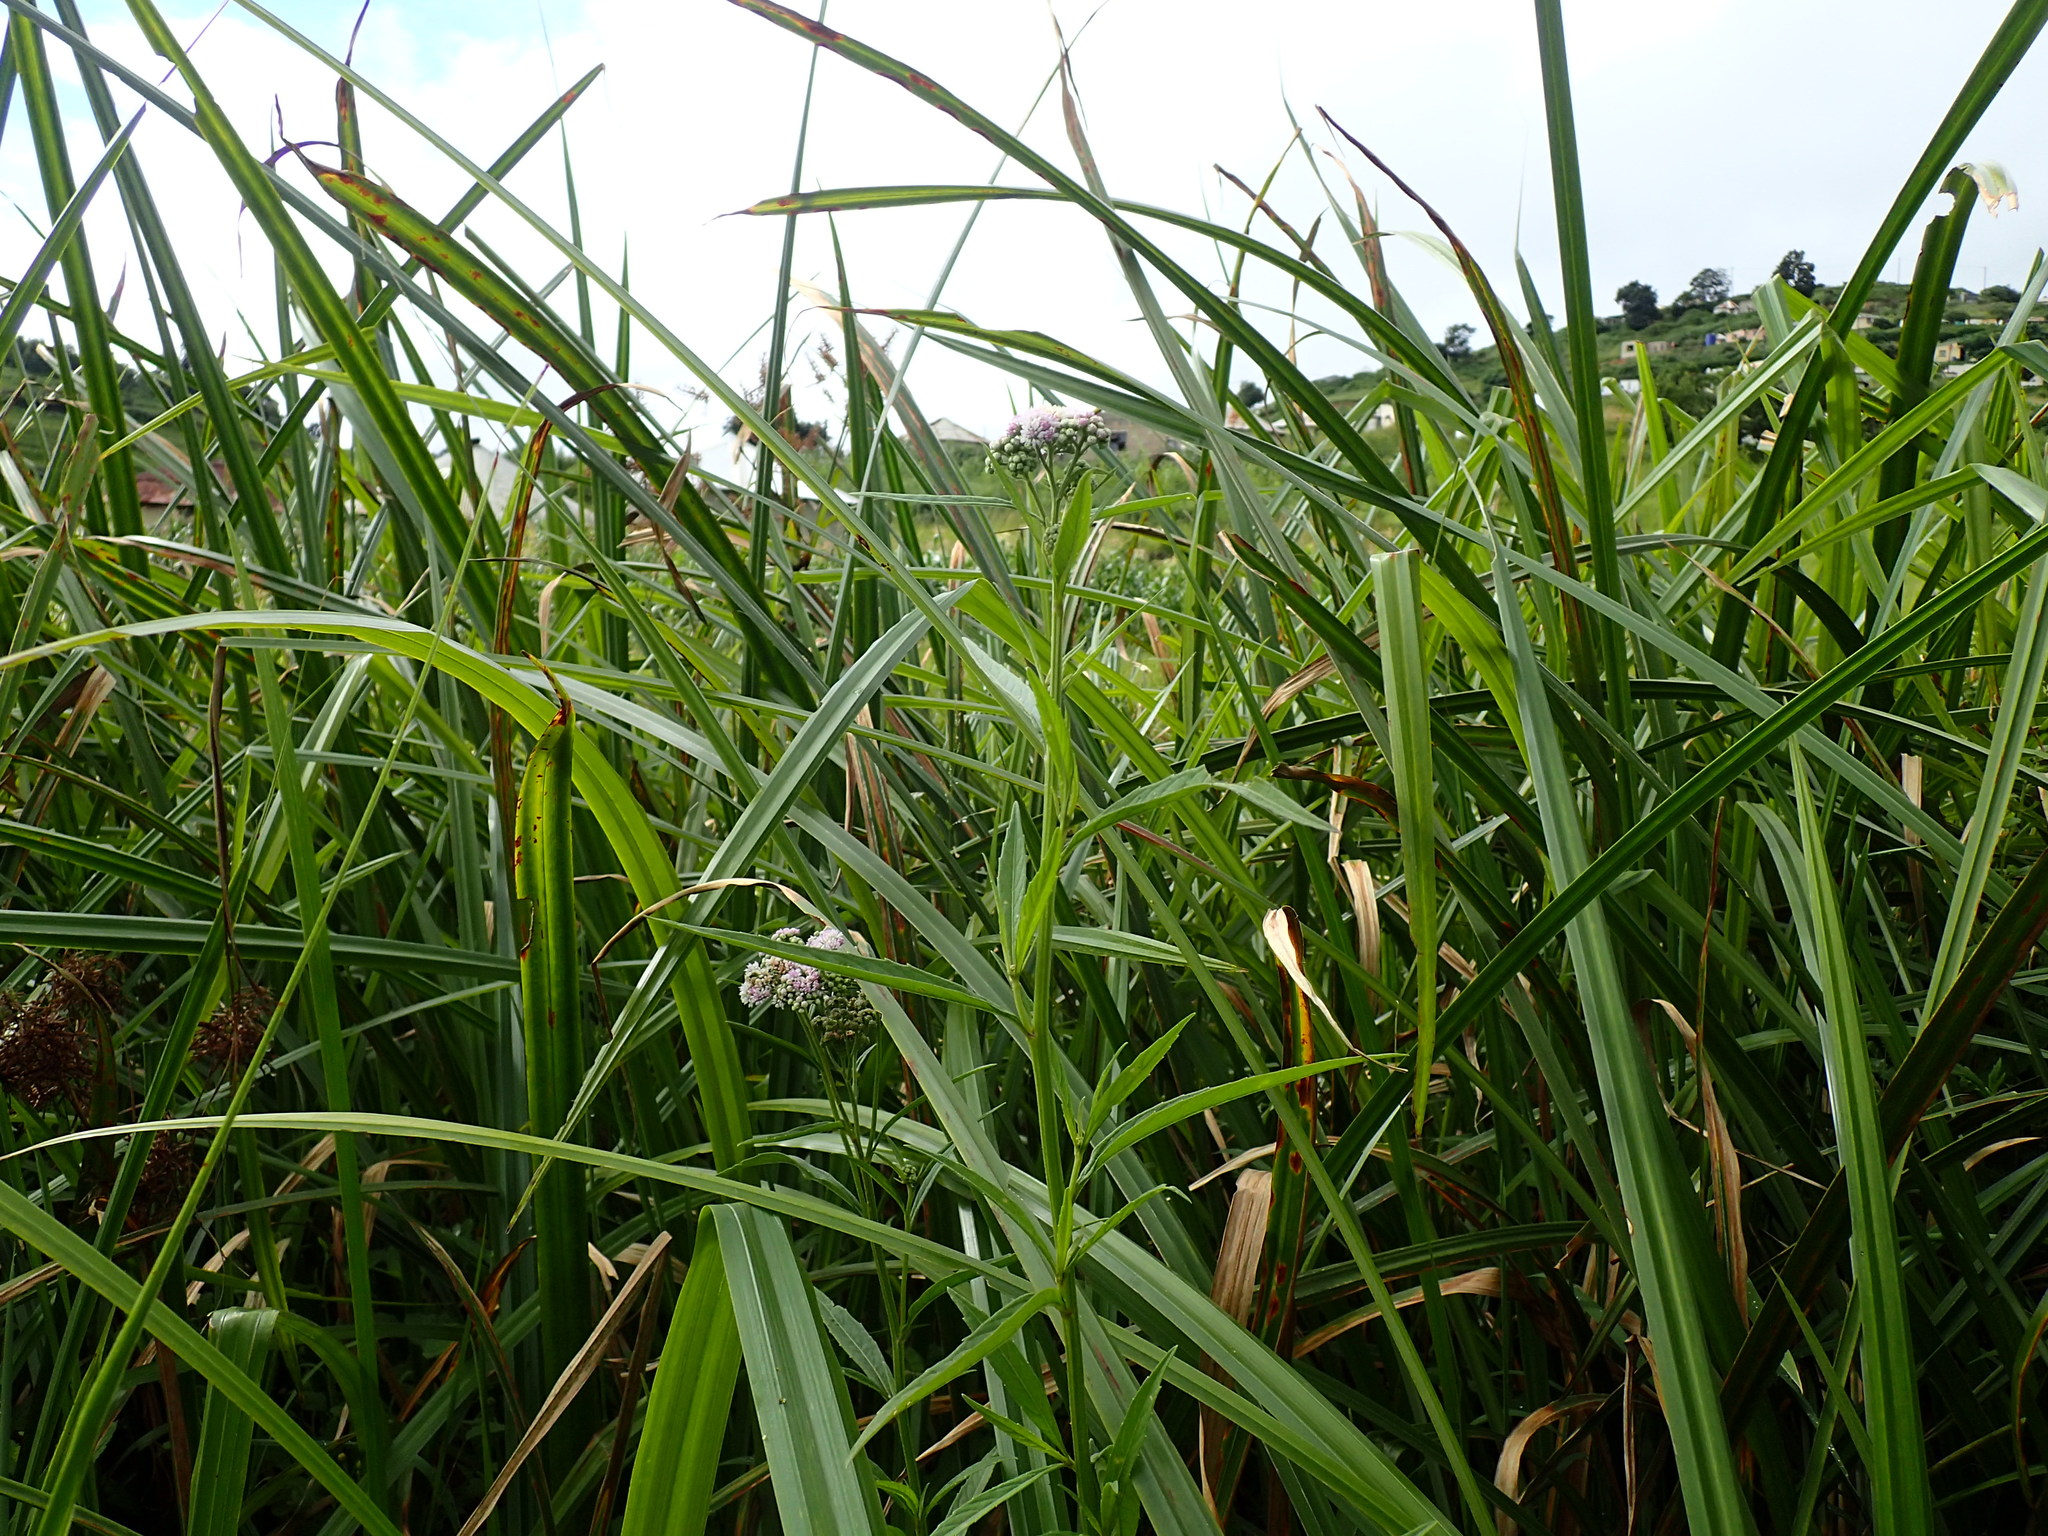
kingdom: Plantae
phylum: Tracheophyta
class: Magnoliopsida
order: Asterales
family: Asteraceae
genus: Ethulia
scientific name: Ethulia conyzoides
